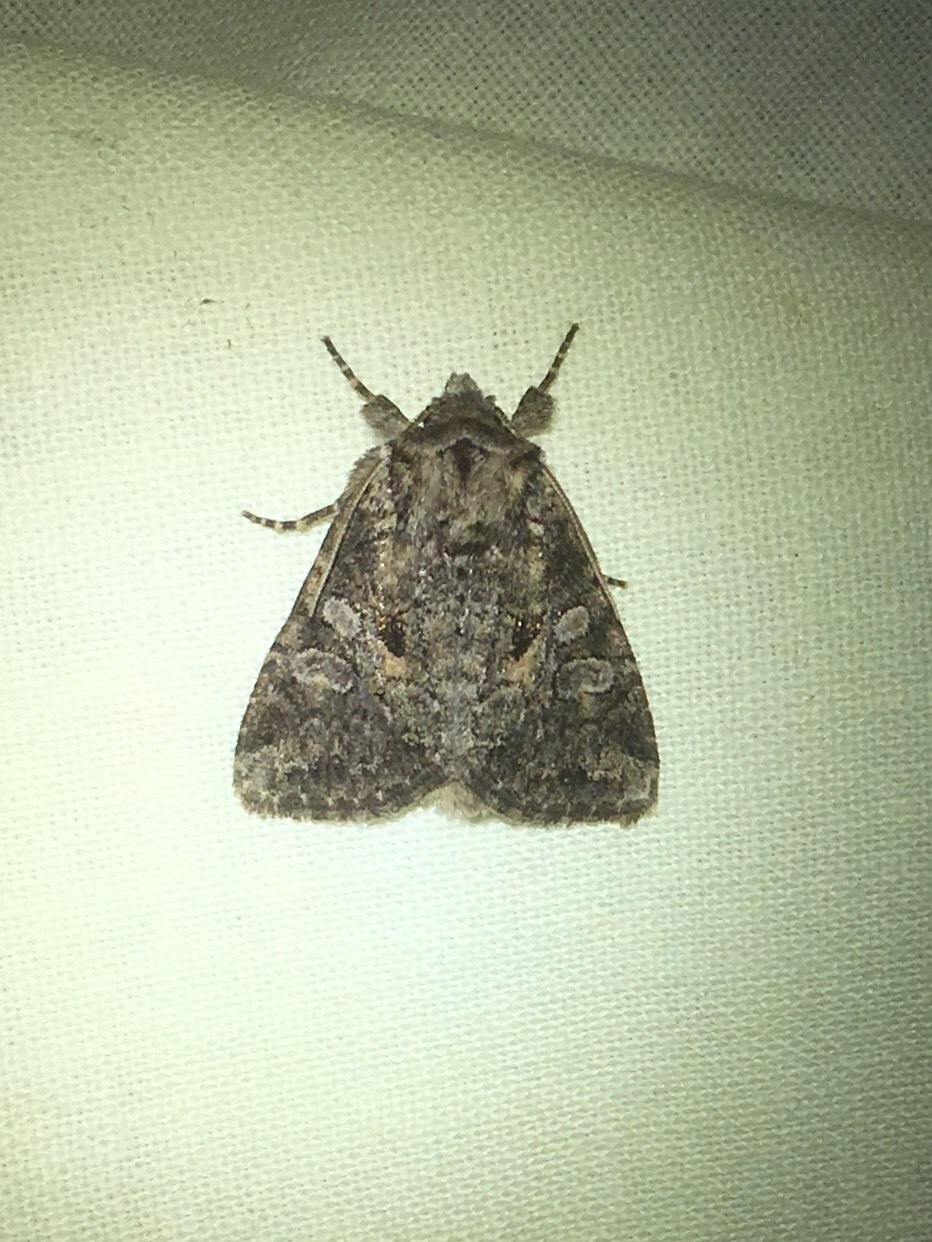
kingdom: Animalia
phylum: Arthropoda
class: Insecta
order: Lepidoptera
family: Noctuidae
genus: Orthodes
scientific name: Orthodes detracta
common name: Disparaged arches moth
